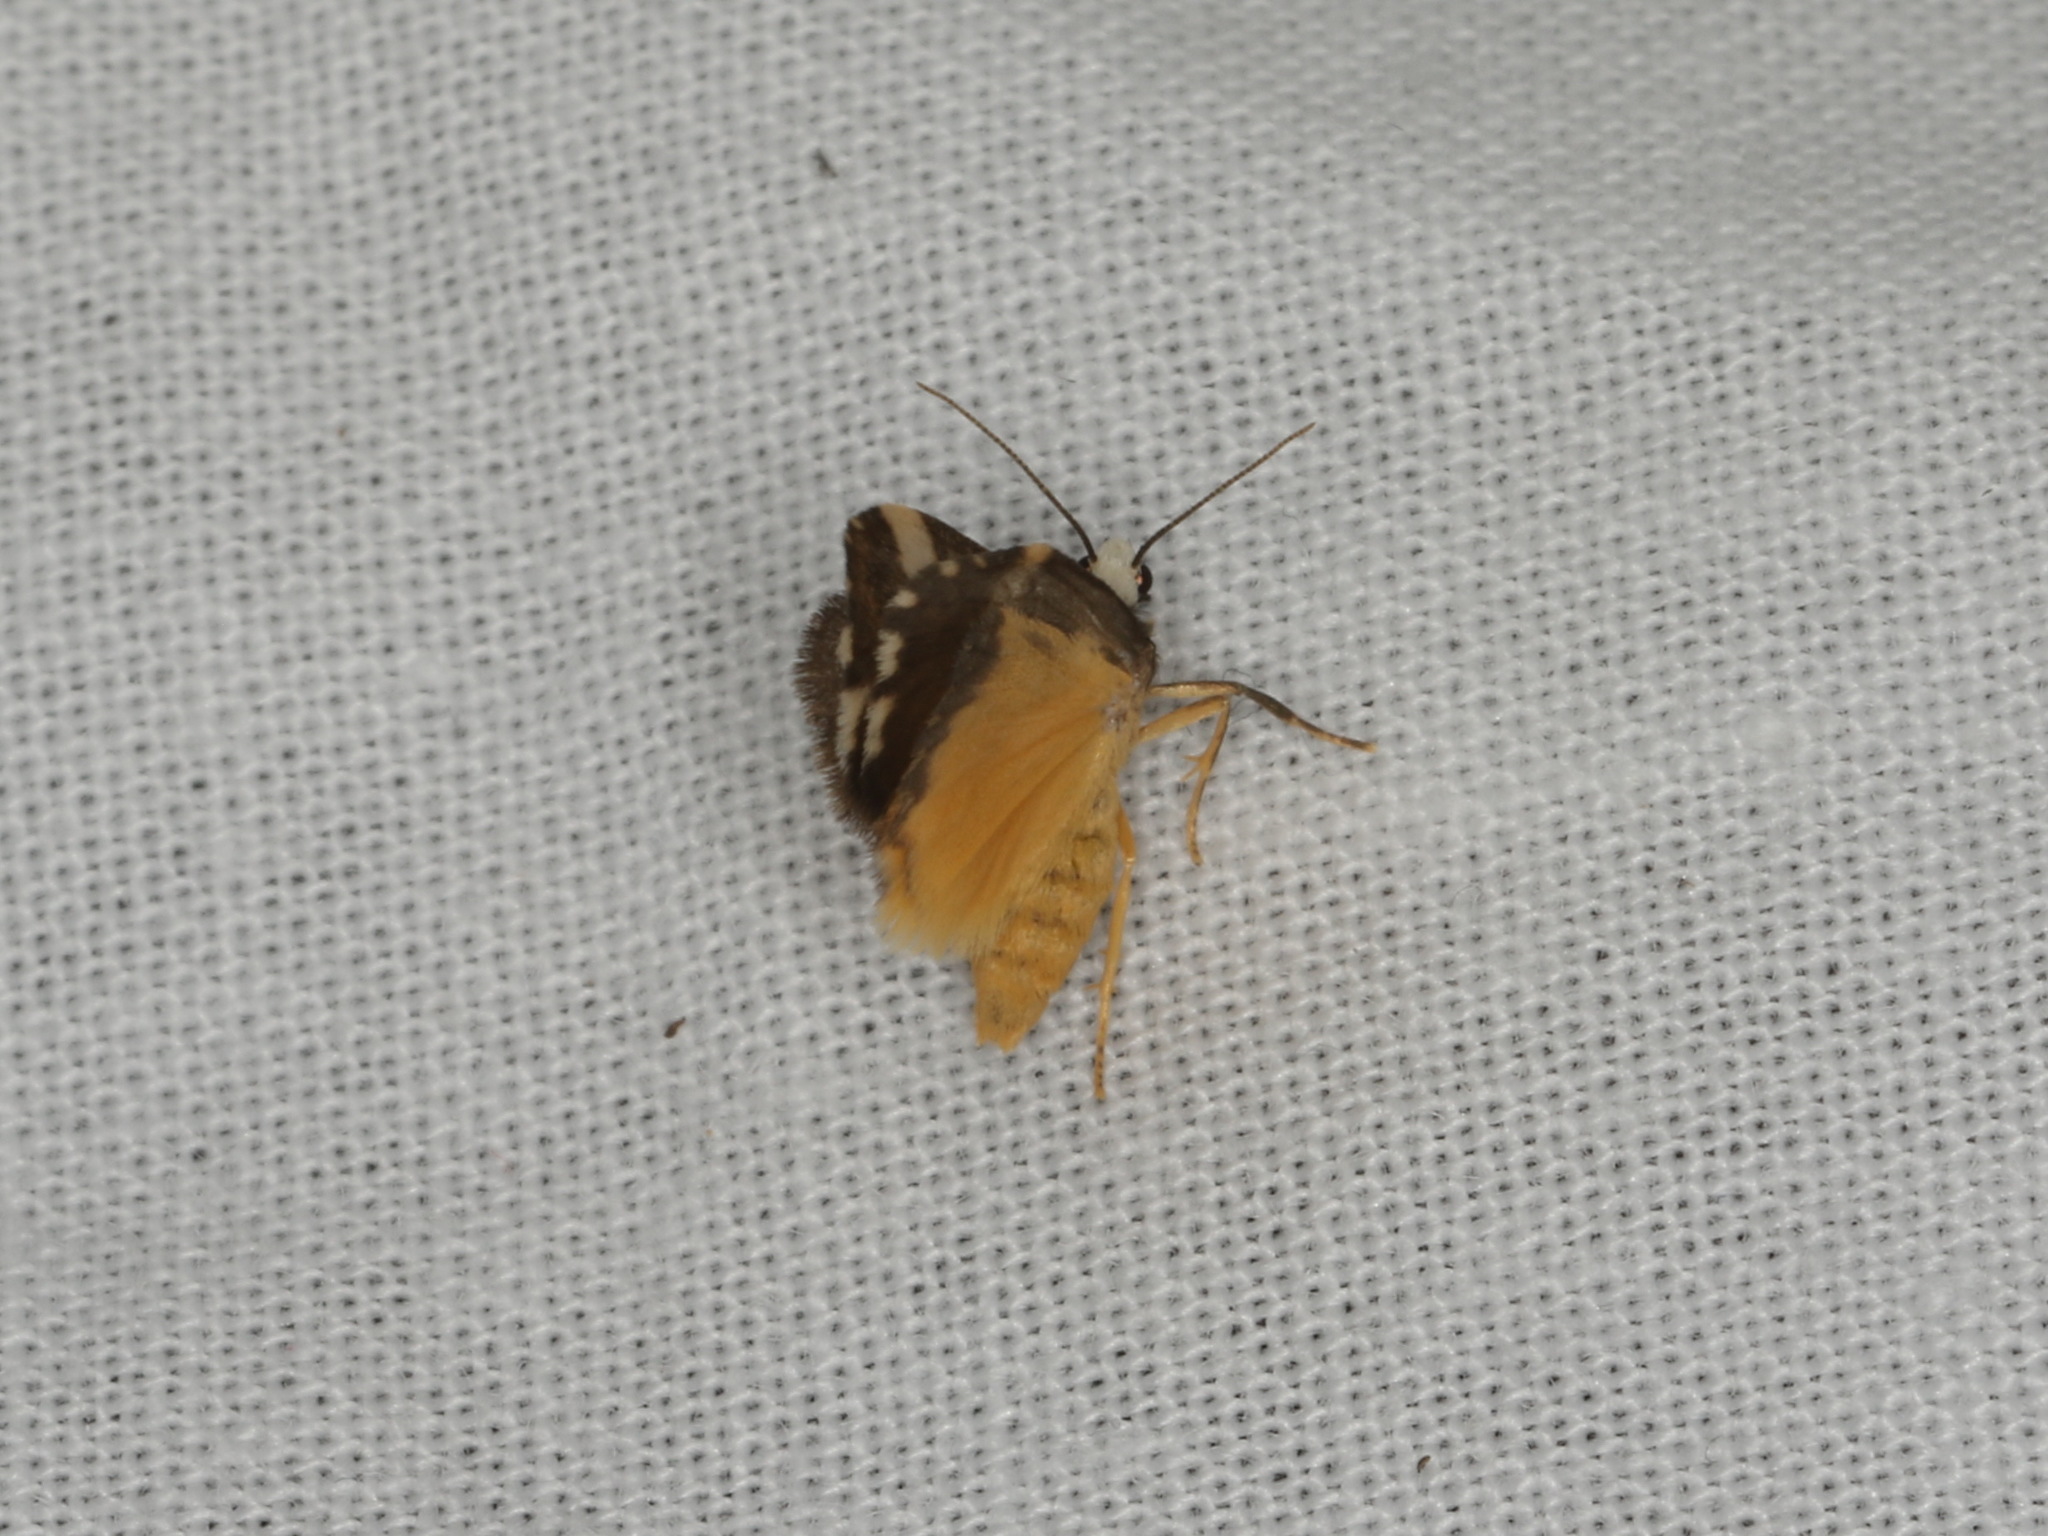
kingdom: Animalia
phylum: Arthropoda
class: Insecta
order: Lepidoptera
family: Erebidae
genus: Philenora
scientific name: Philenora elegans
